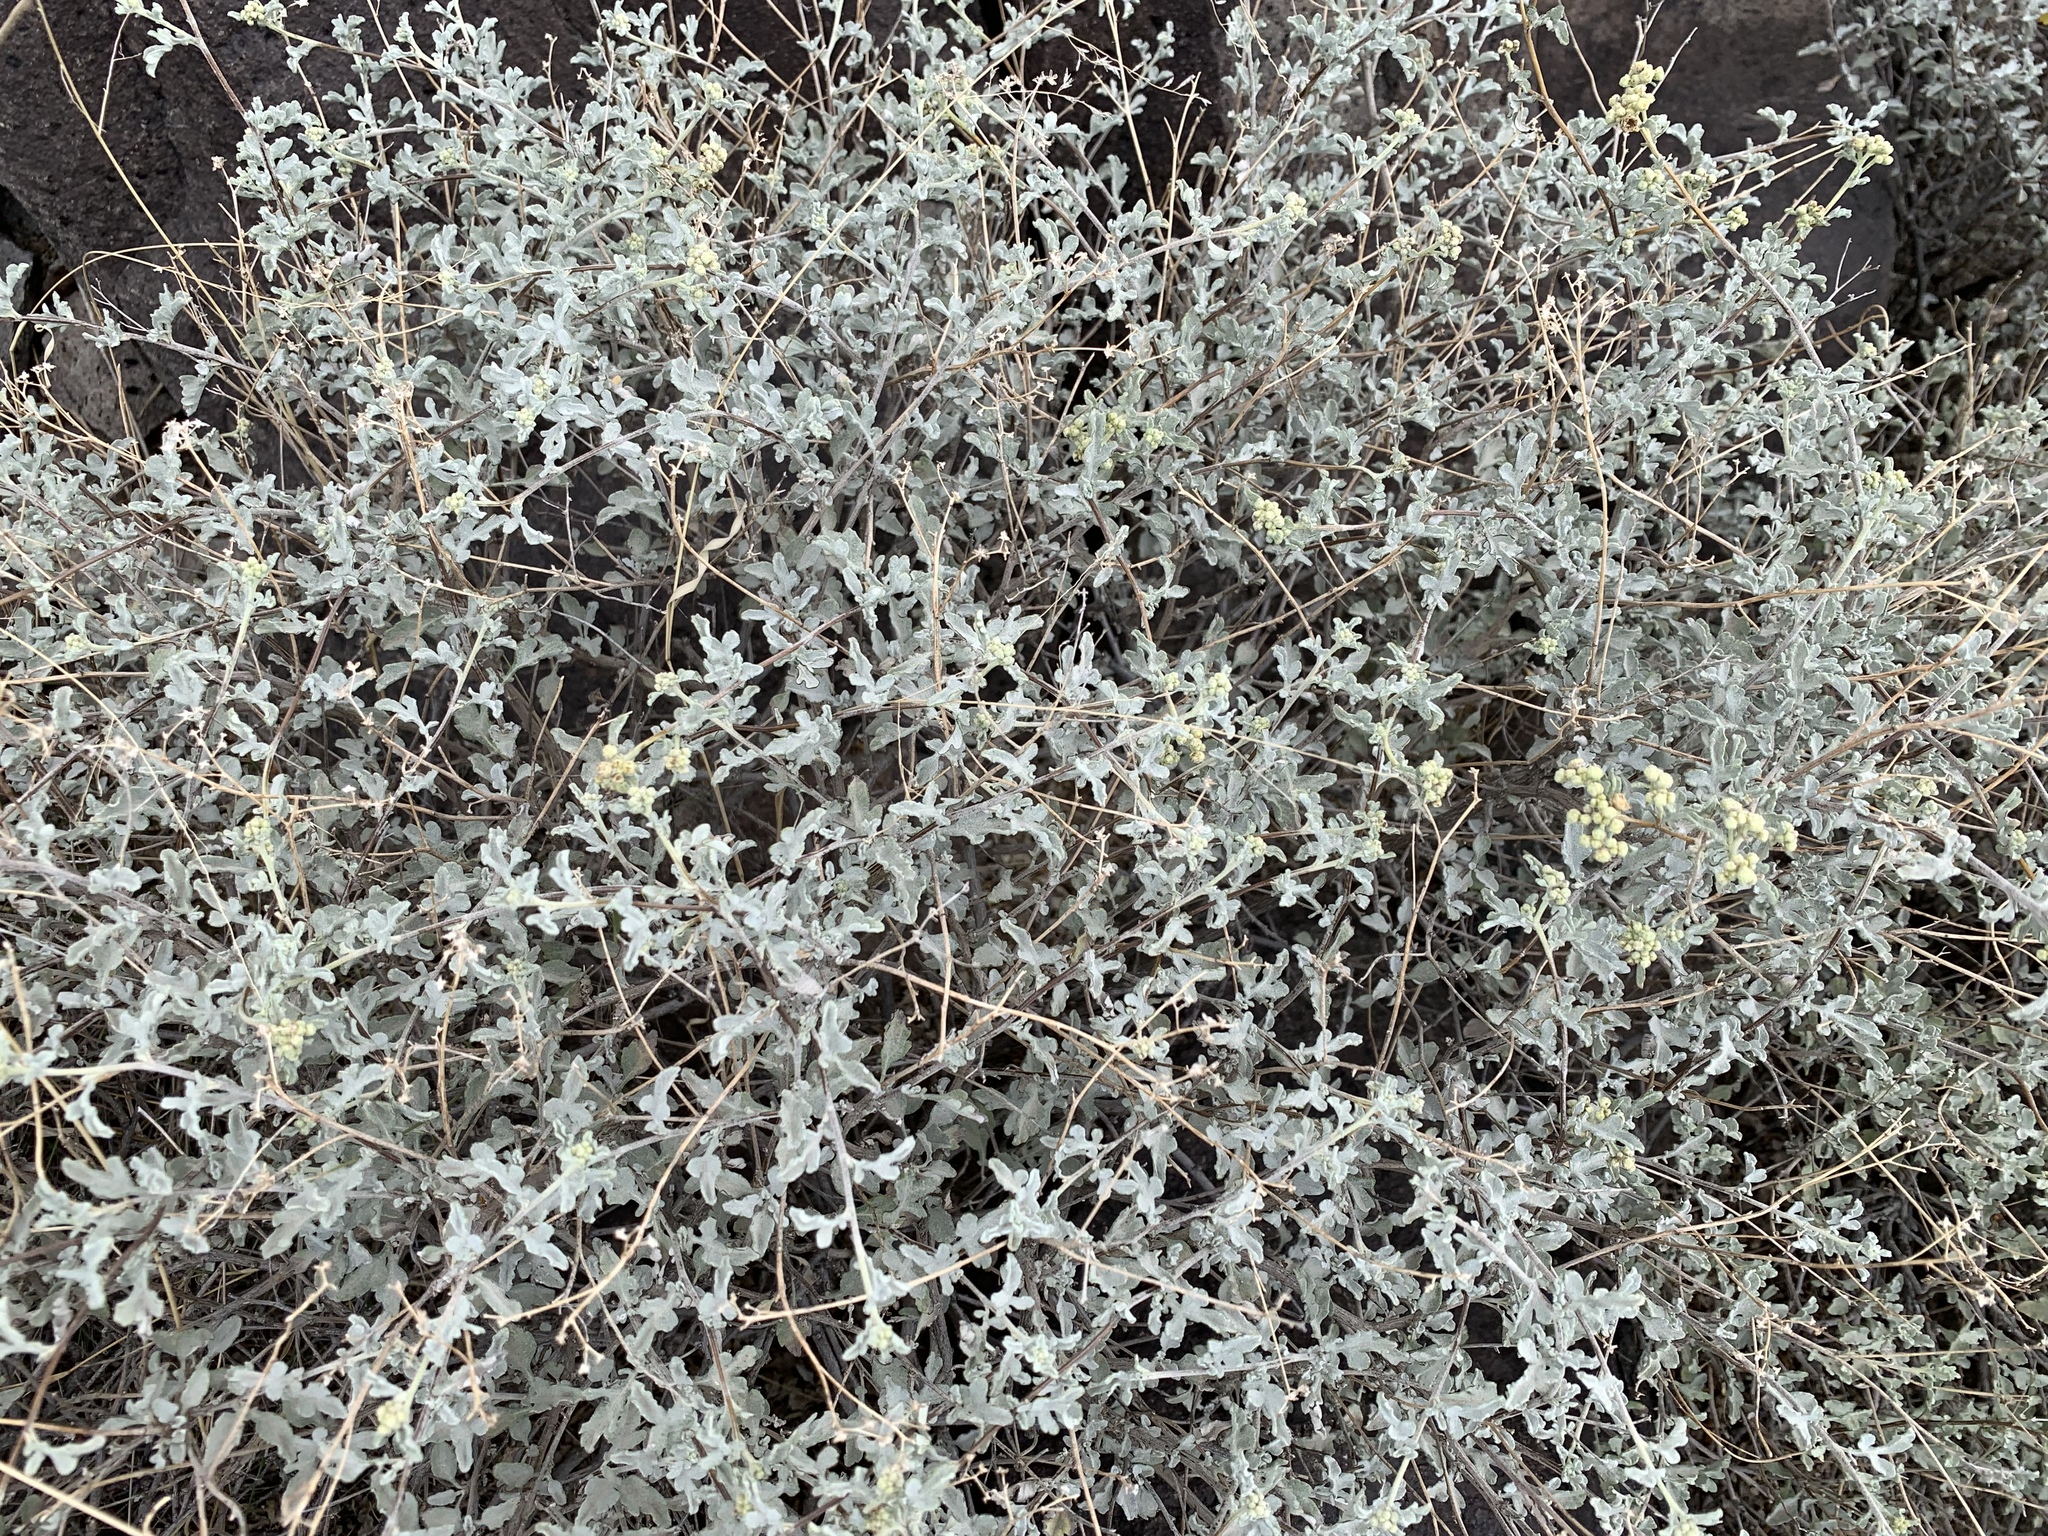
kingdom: Plantae
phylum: Tracheophyta
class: Magnoliopsida
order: Asterales
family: Asteraceae
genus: Parthenium
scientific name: Parthenium incanum
